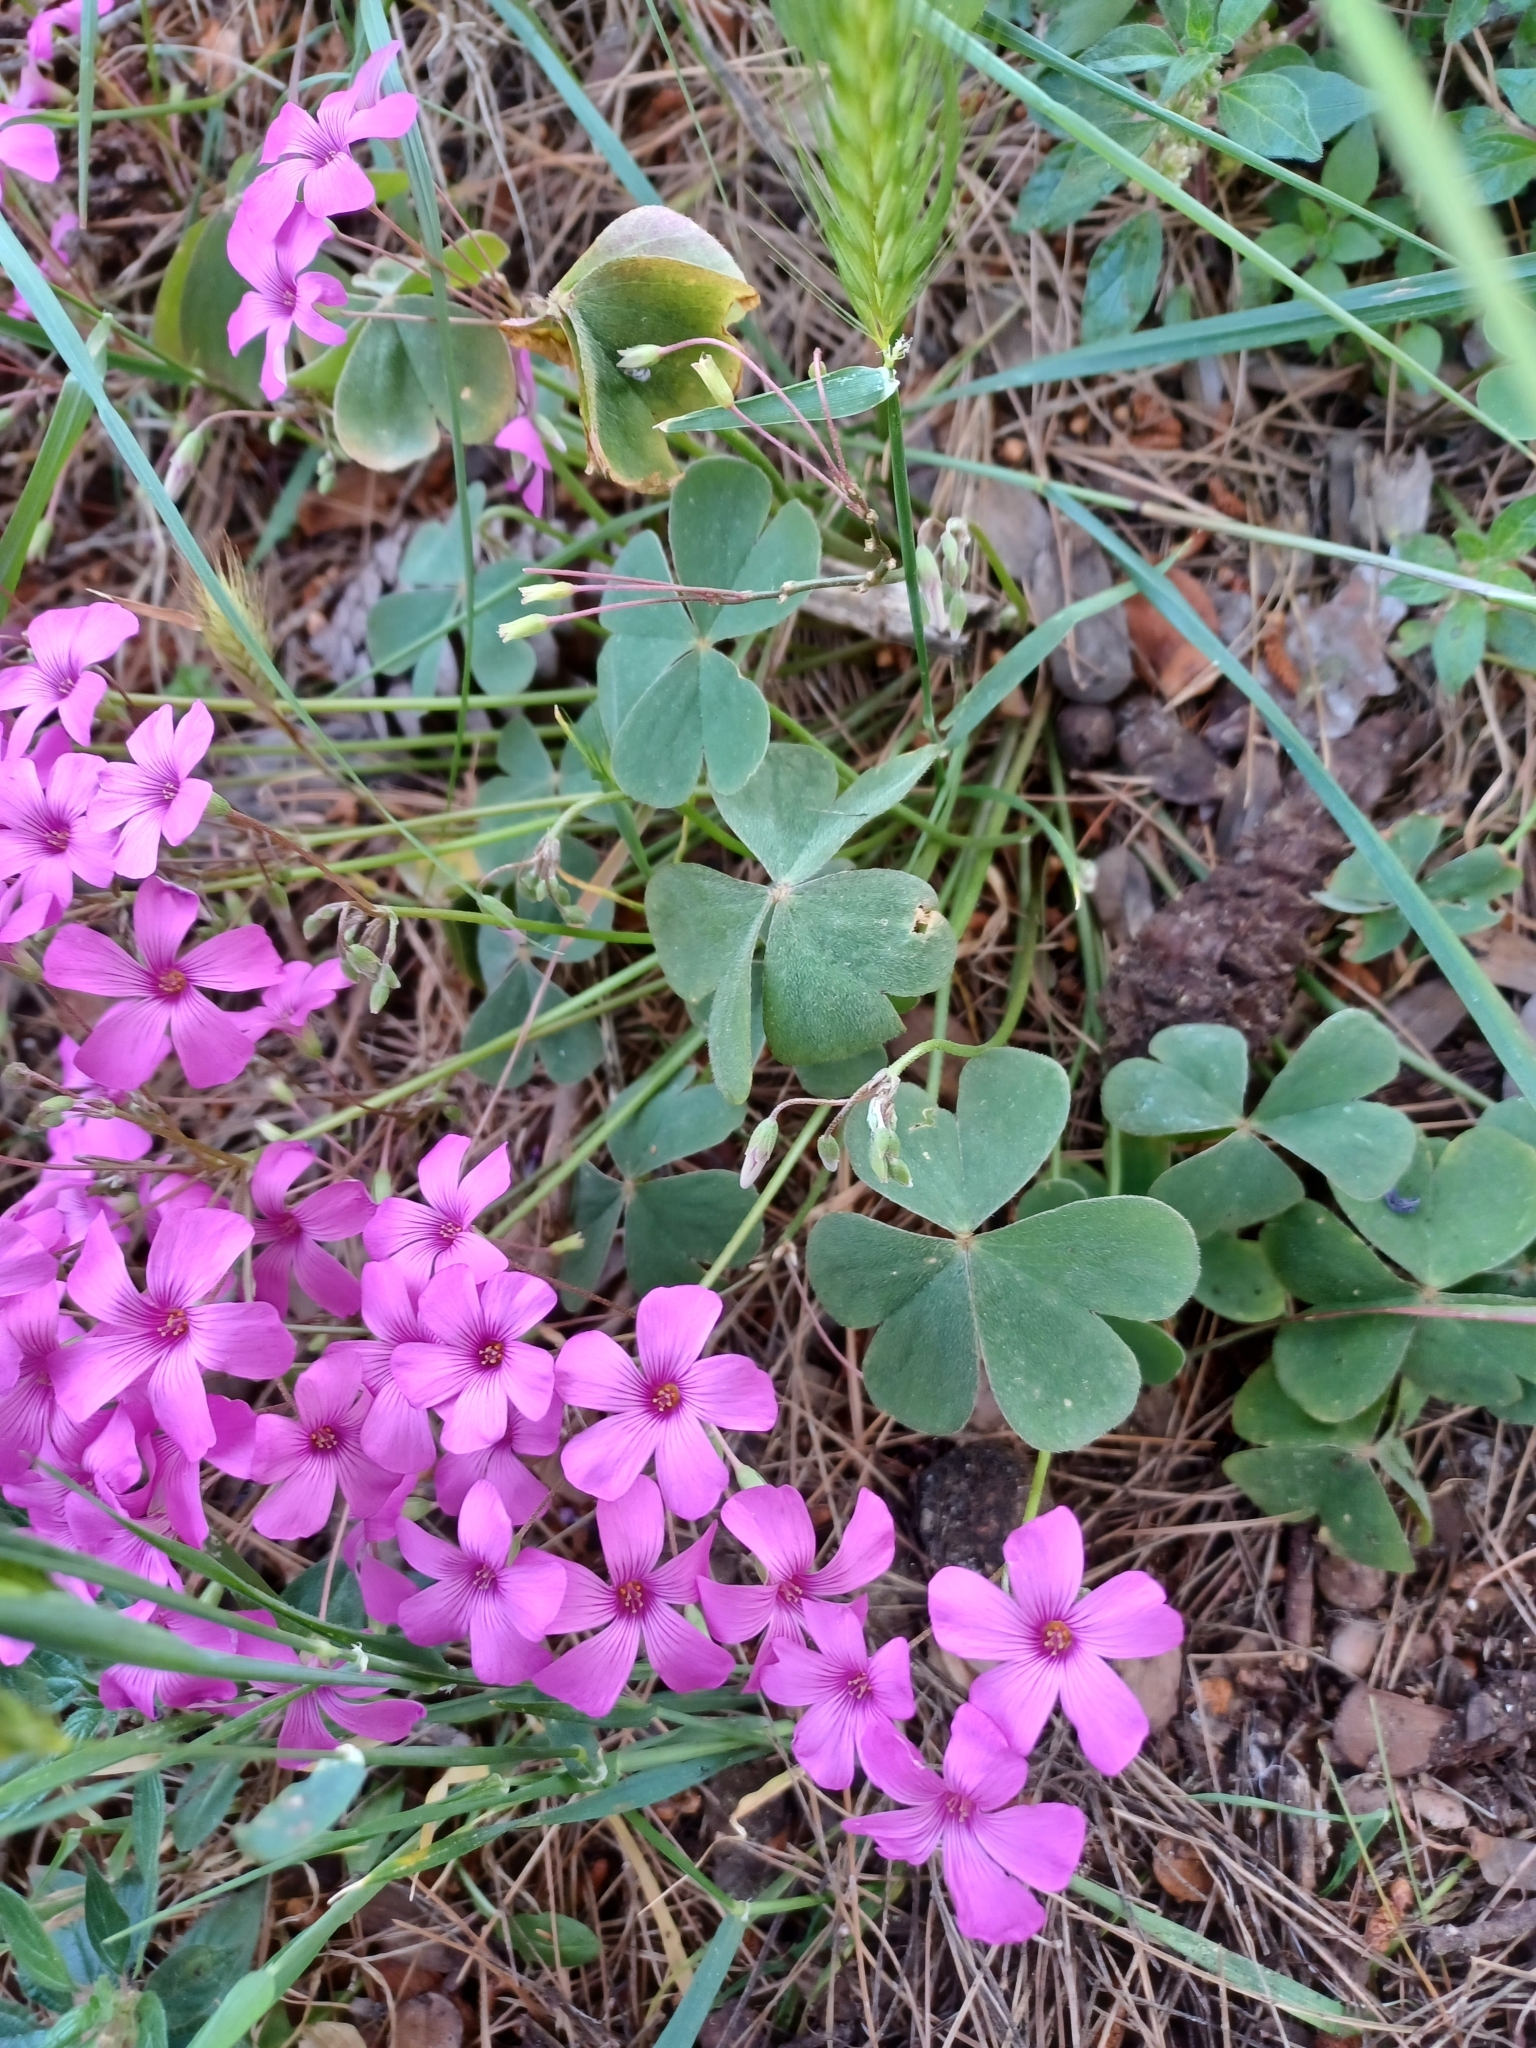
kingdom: Plantae
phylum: Tracheophyta
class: Magnoliopsida
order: Oxalidales
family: Oxalidaceae
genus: Oxalis
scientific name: Oxalis articulata
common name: Pink-sorrel
